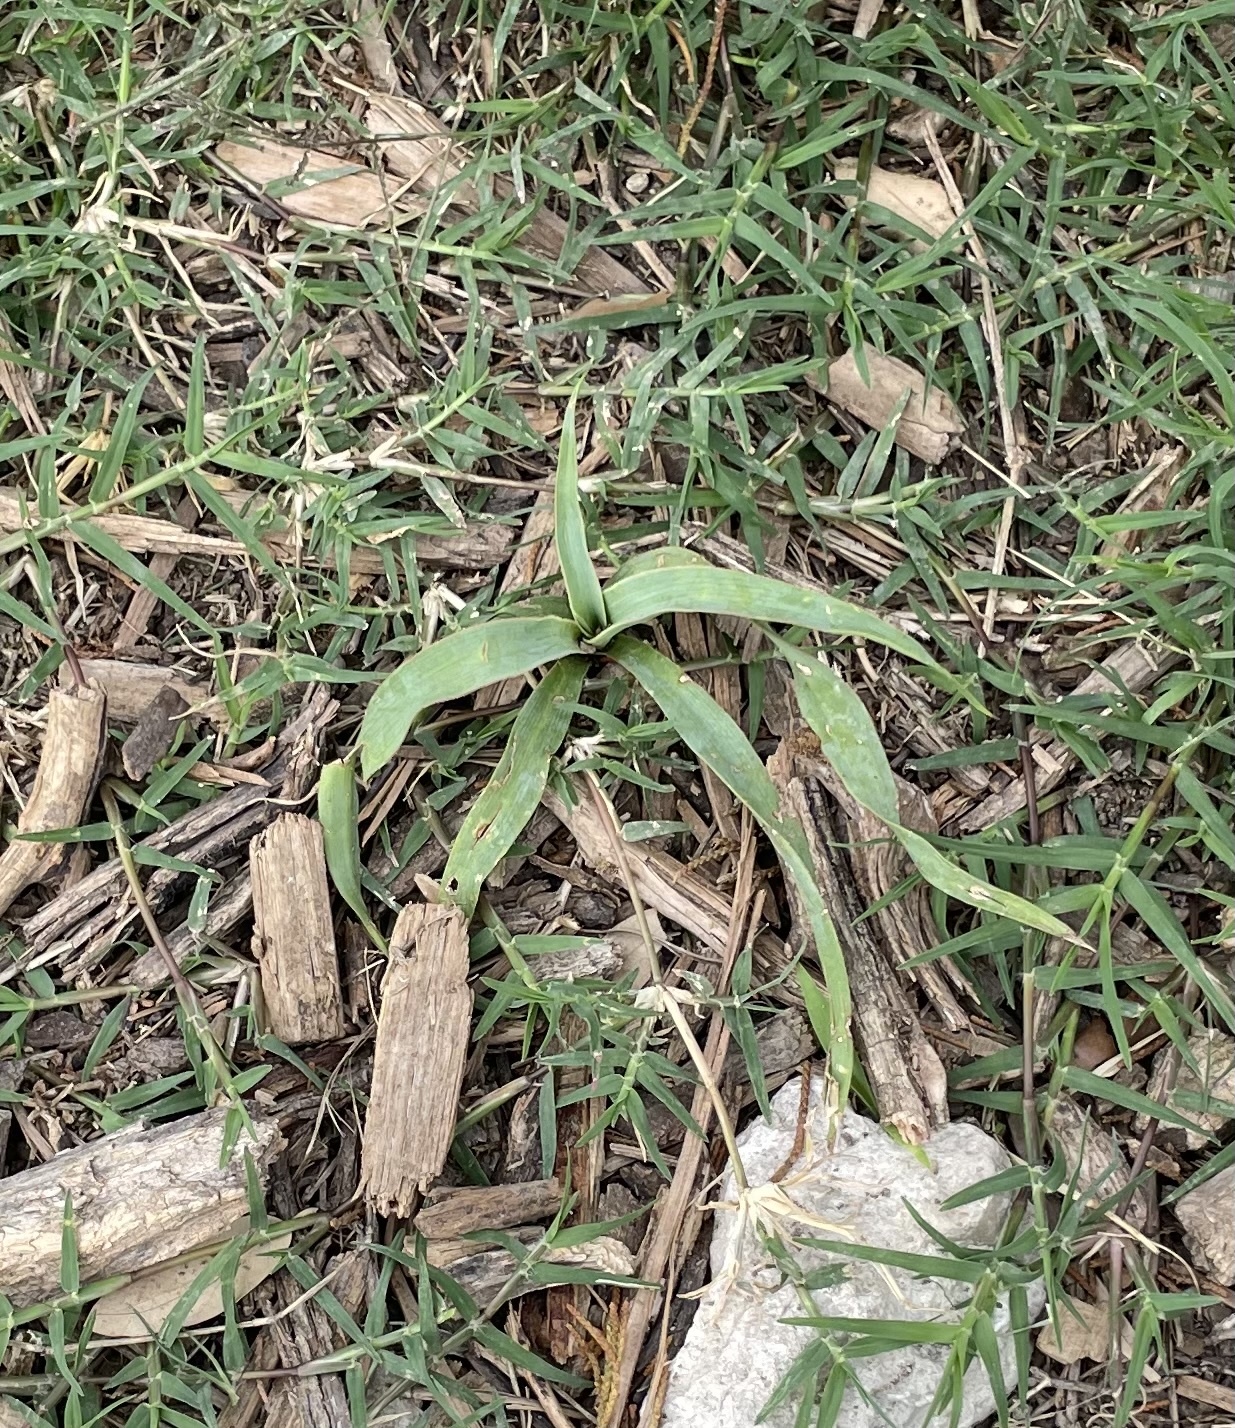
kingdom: Plantae
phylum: Tracheophyta
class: Liliopsida
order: Asparagales
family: Asparagaceae
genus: Yucca
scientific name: Yucca rupicola
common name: Twisted-leaf spanish-dagger
